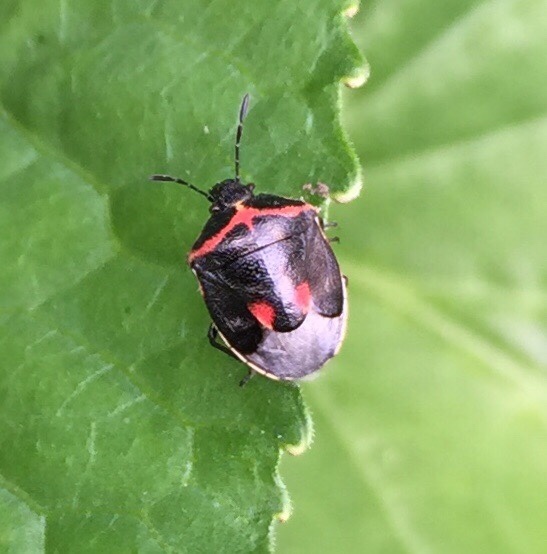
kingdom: Animalia
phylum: Arthropoda
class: Insecta
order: Hemiptera
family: Pentatomidae
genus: Cosmopepla
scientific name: Cosmopepla lintneriana
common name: Twice-stabbed stink bug
